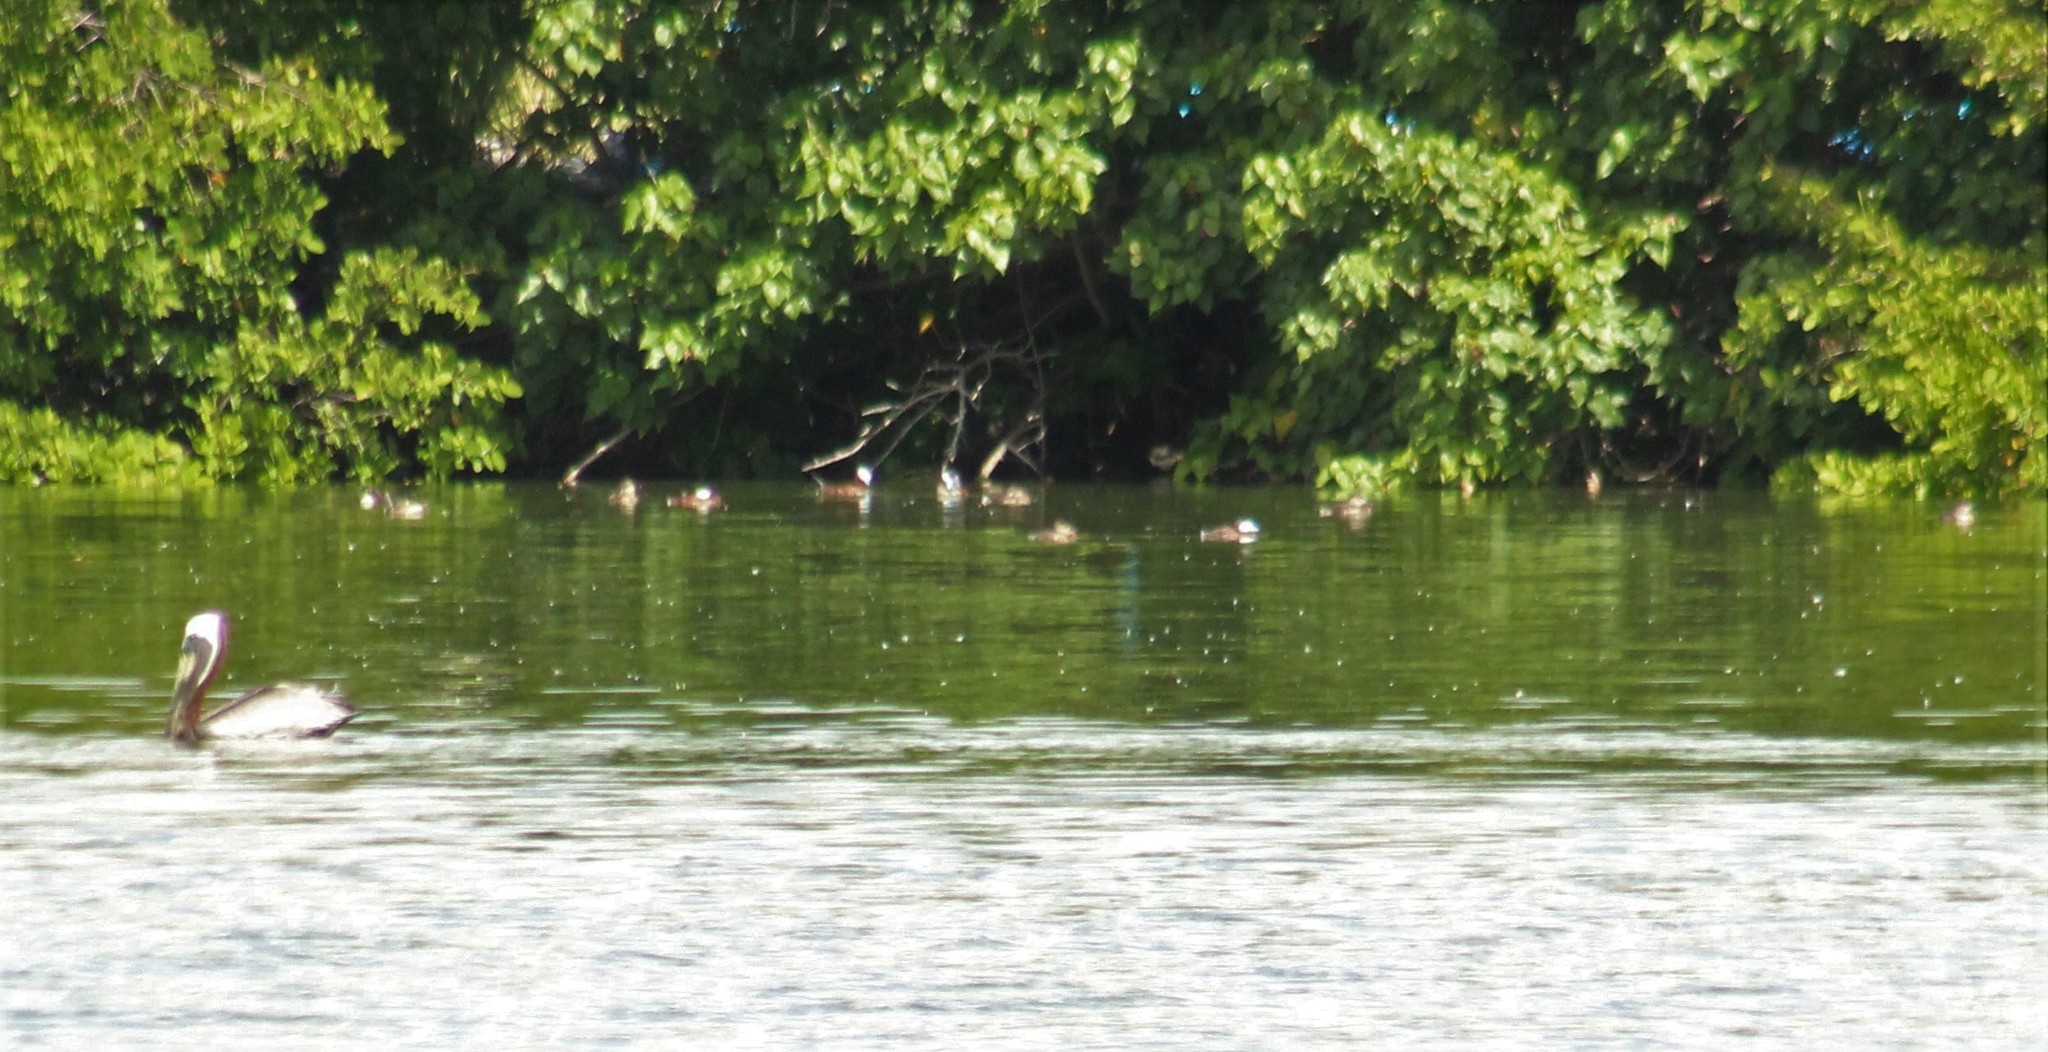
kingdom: Animalia
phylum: Chordata
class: Aves
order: Anseriformes
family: Anatidae
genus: Oxyura
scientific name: Oxyura jamaicensis
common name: Ruddy duck
